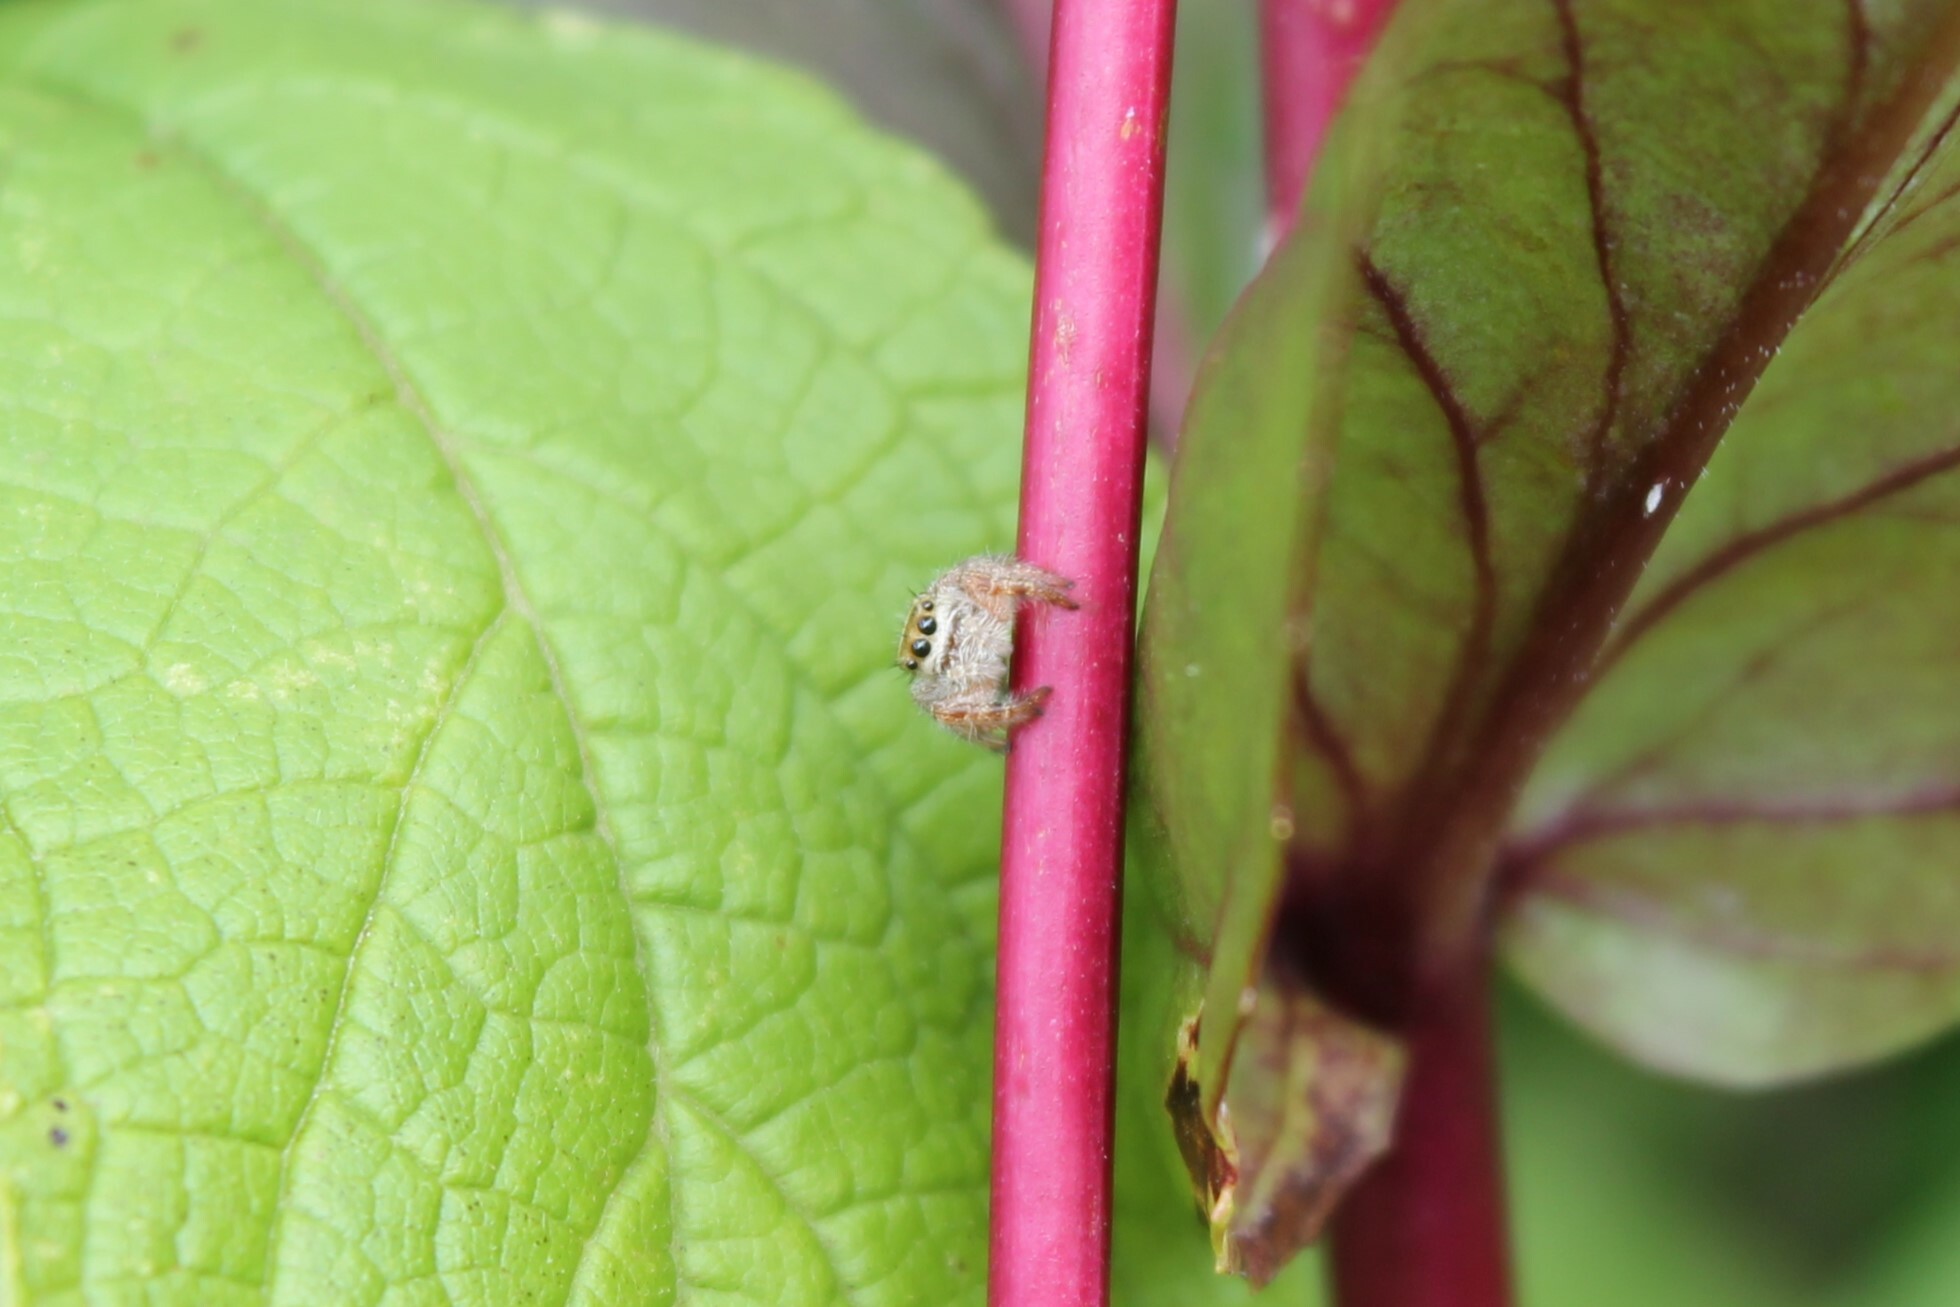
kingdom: Animalia
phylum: Arthropoda
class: Arachnida
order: Araneae
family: Salticidae
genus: Phidippus
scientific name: Phidippus princeps
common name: Grayish jumping spider
